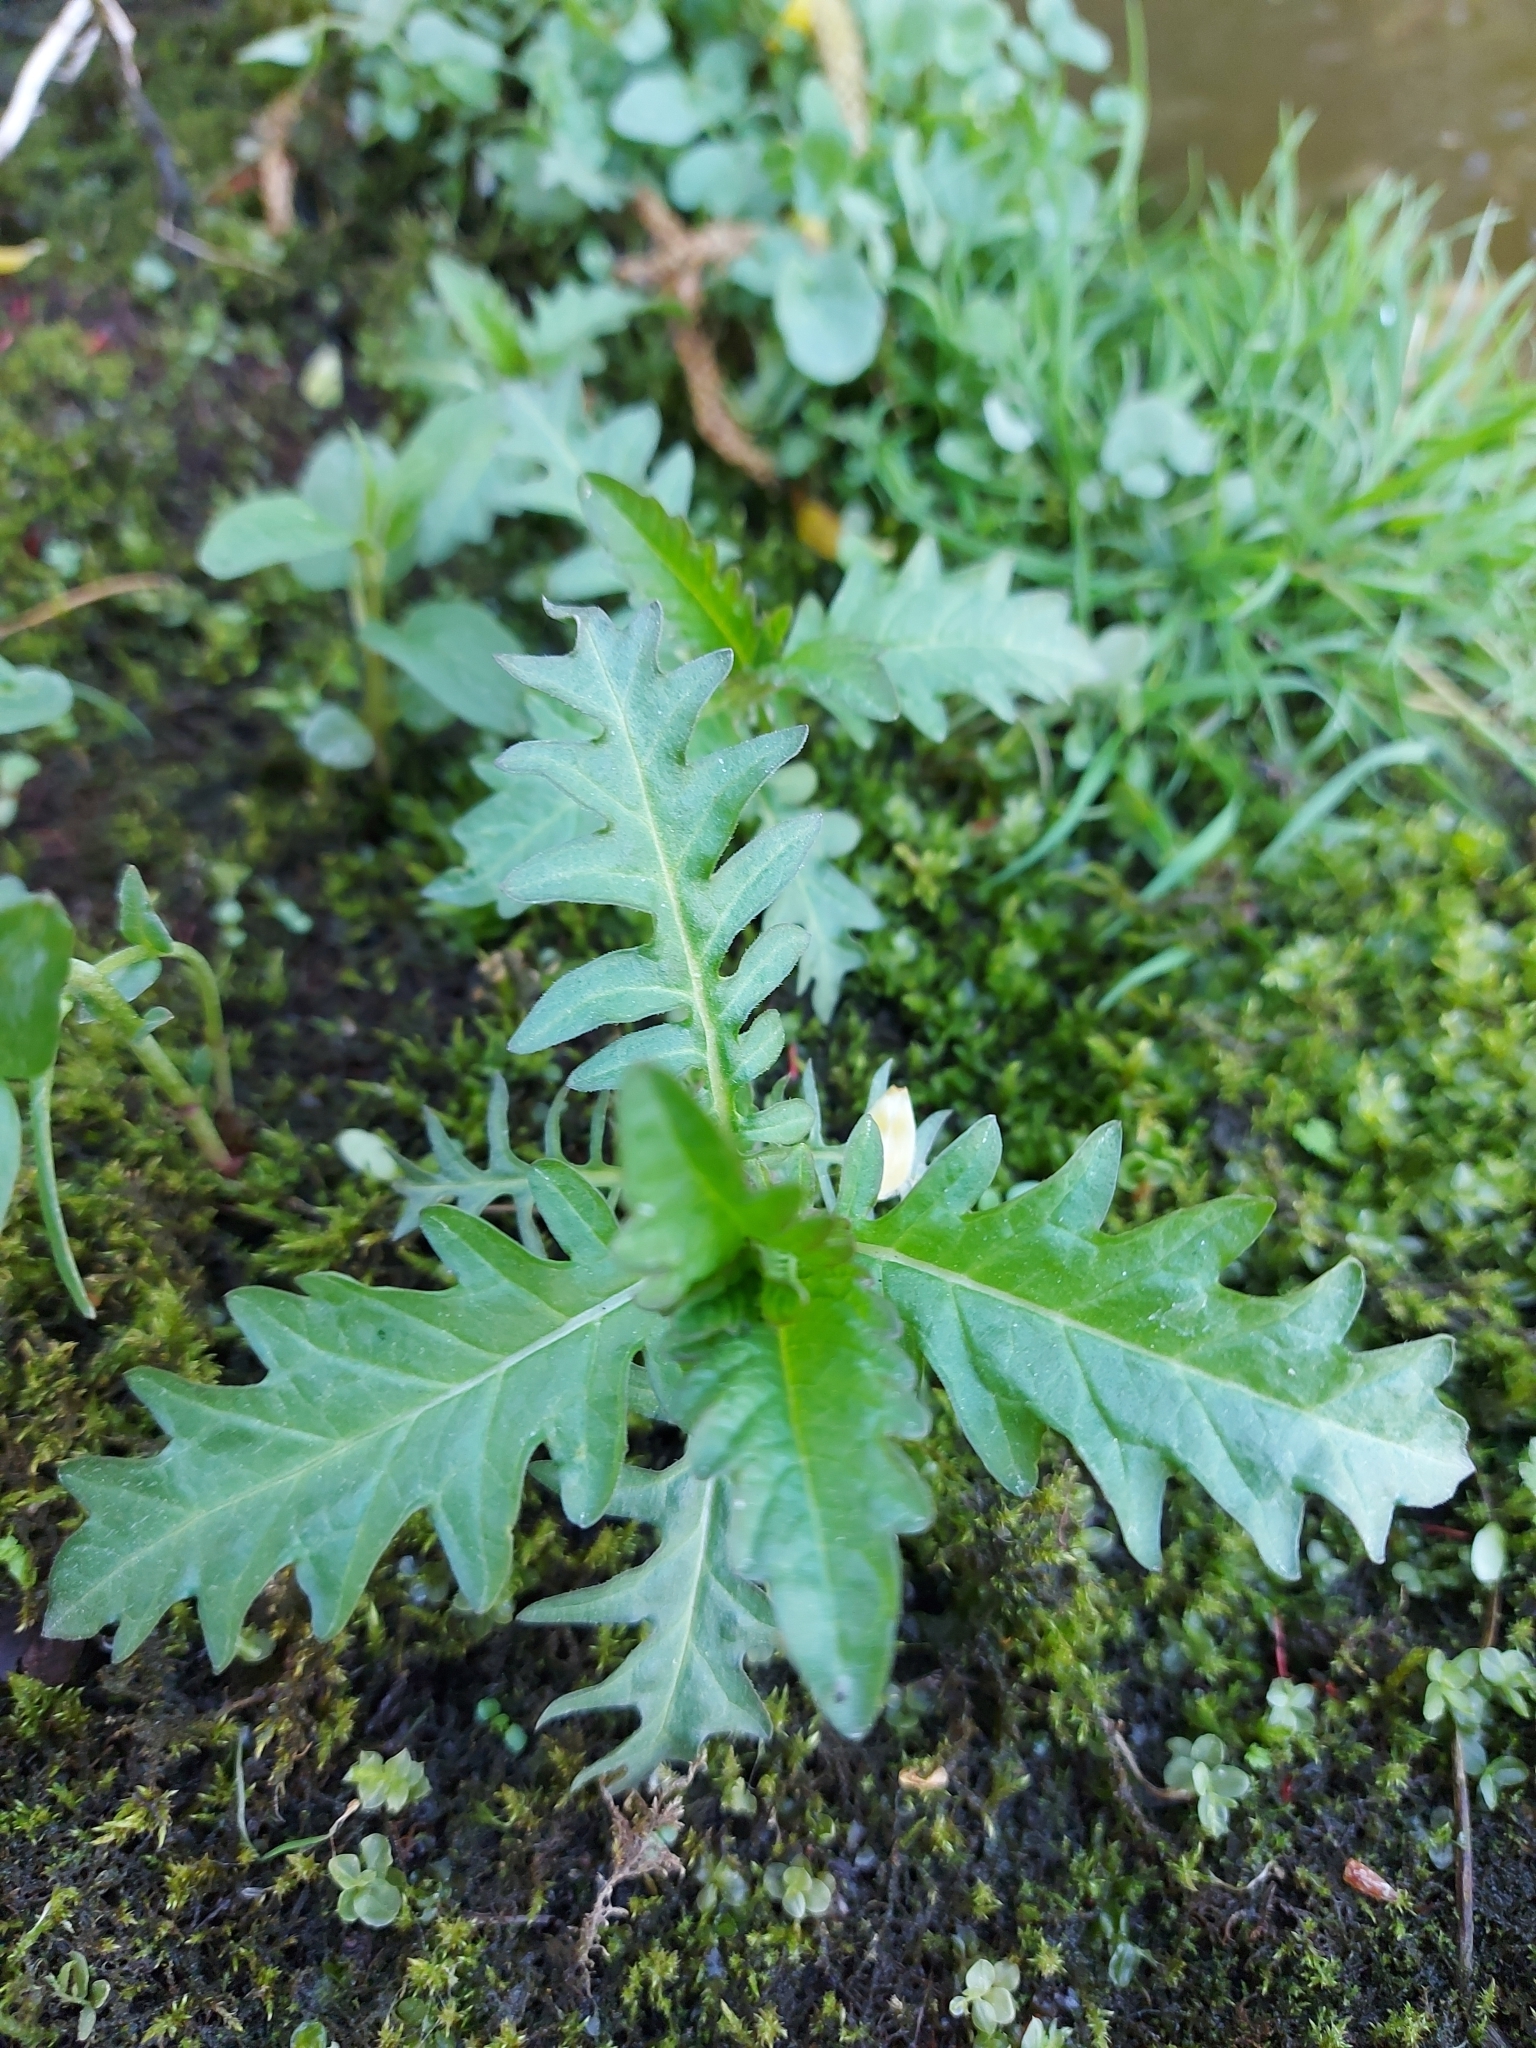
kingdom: Plantae
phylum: Tracheophyta
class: Magnoliopsida
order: Lamiales
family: Lamiaceae
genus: Lycopus
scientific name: Lycopus europaeus
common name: European bugleweed
